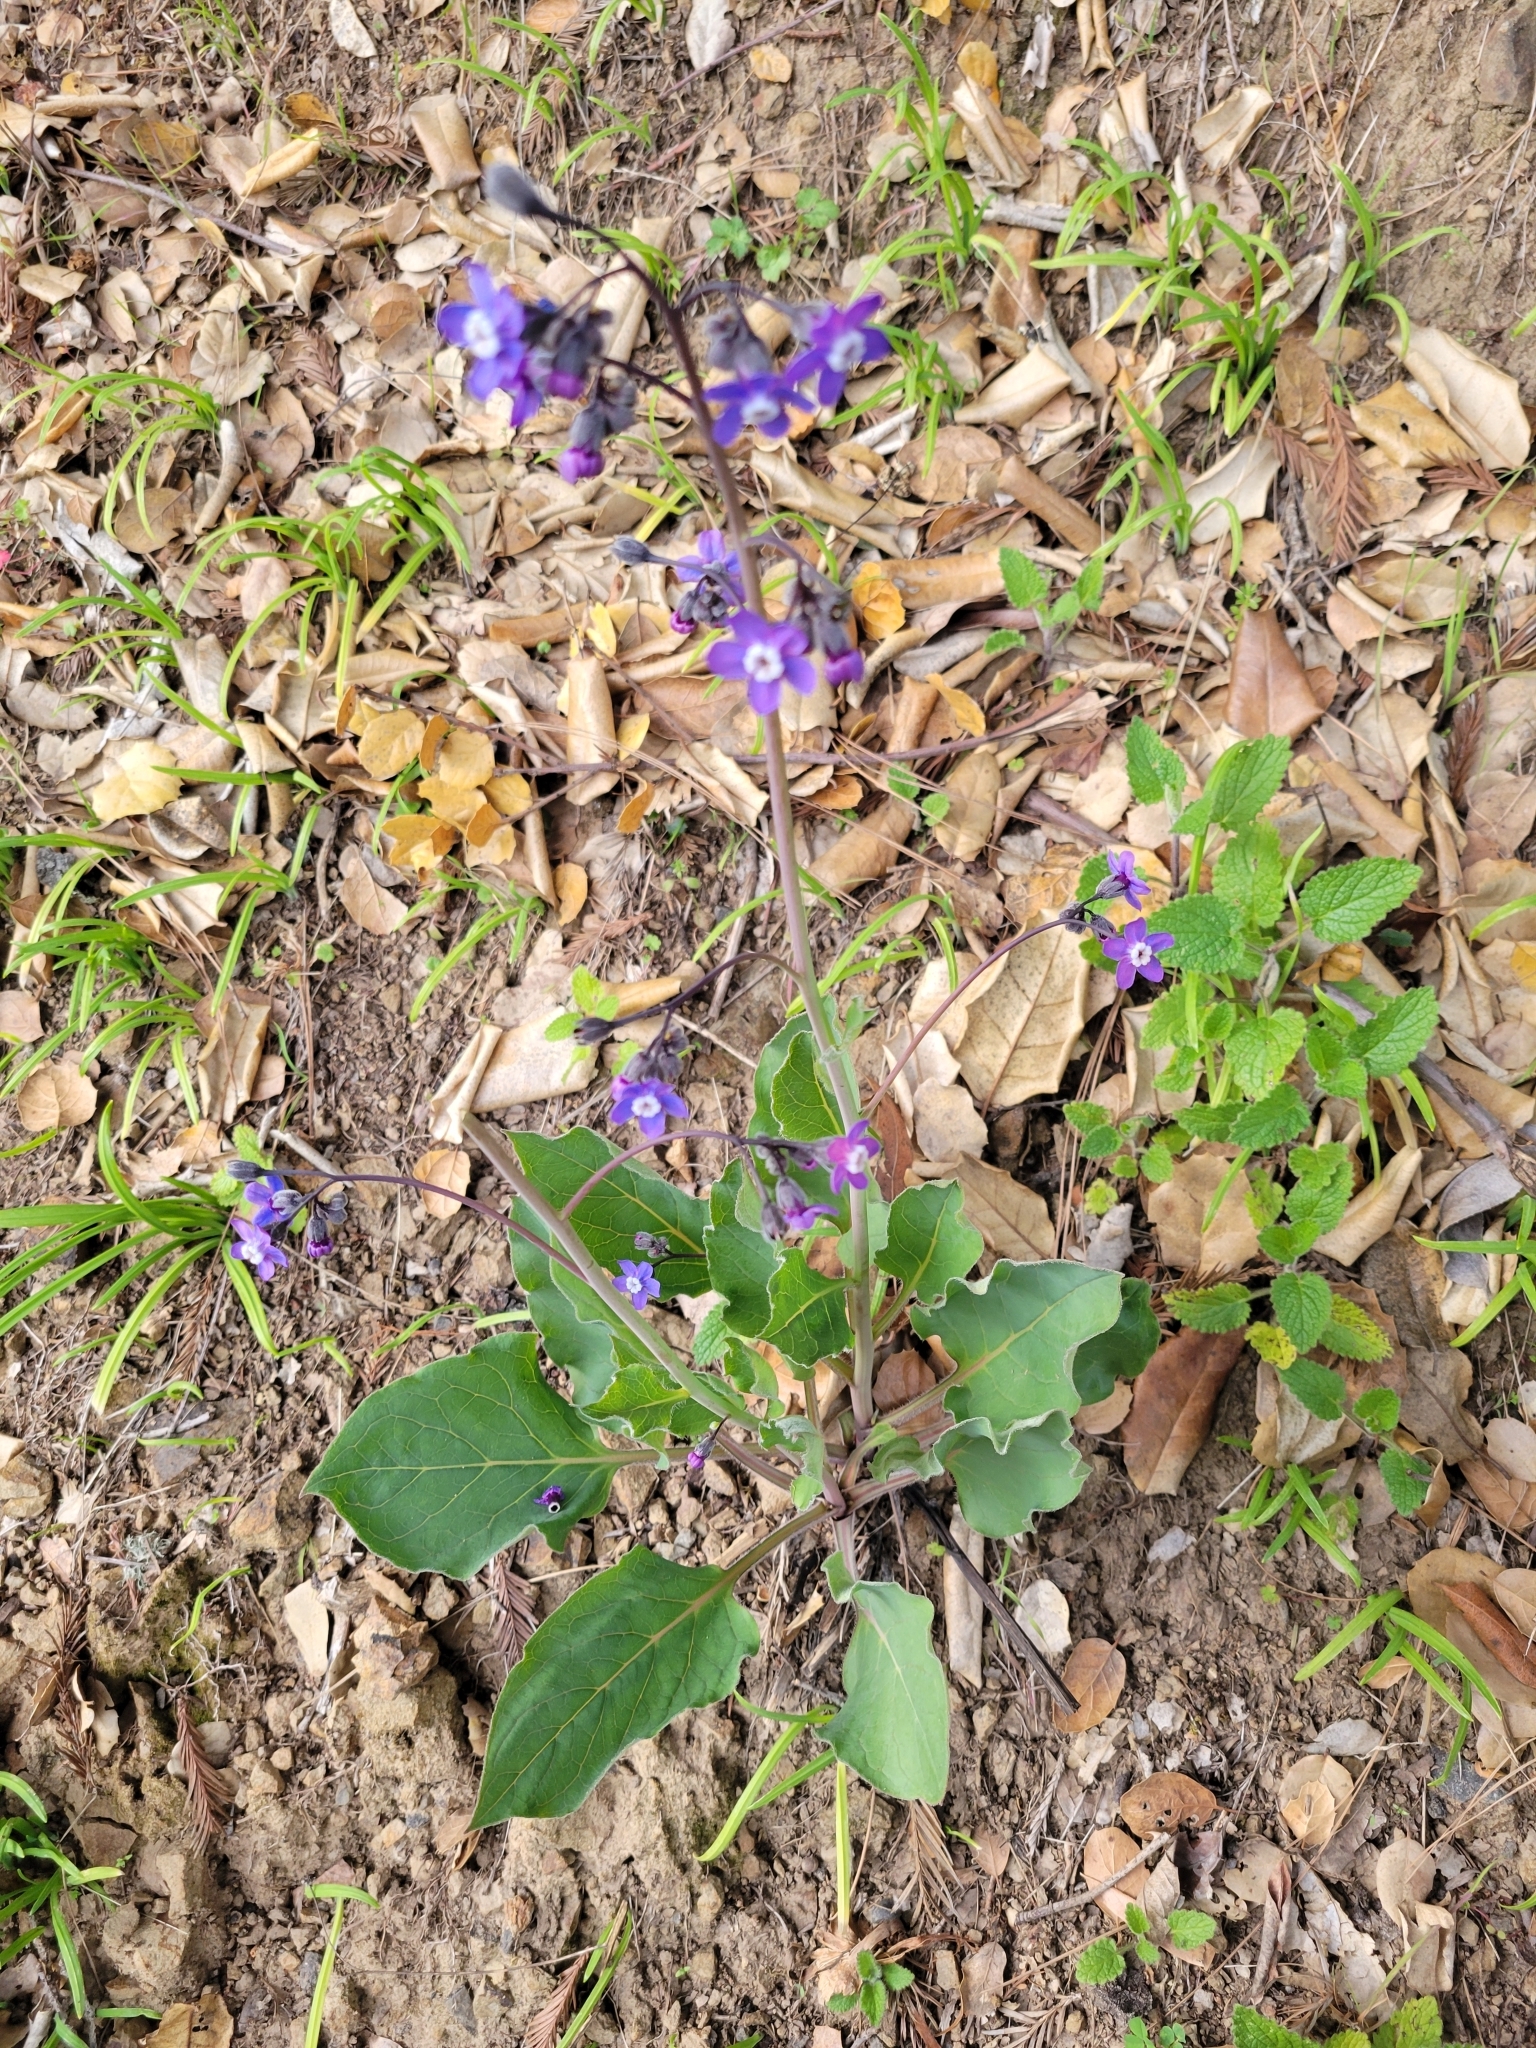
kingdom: Plantae
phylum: Tracheophyta
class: Magnoliopsida
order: Boraginales
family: Boraginaceae
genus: Adelinia
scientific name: Adelinia grande
